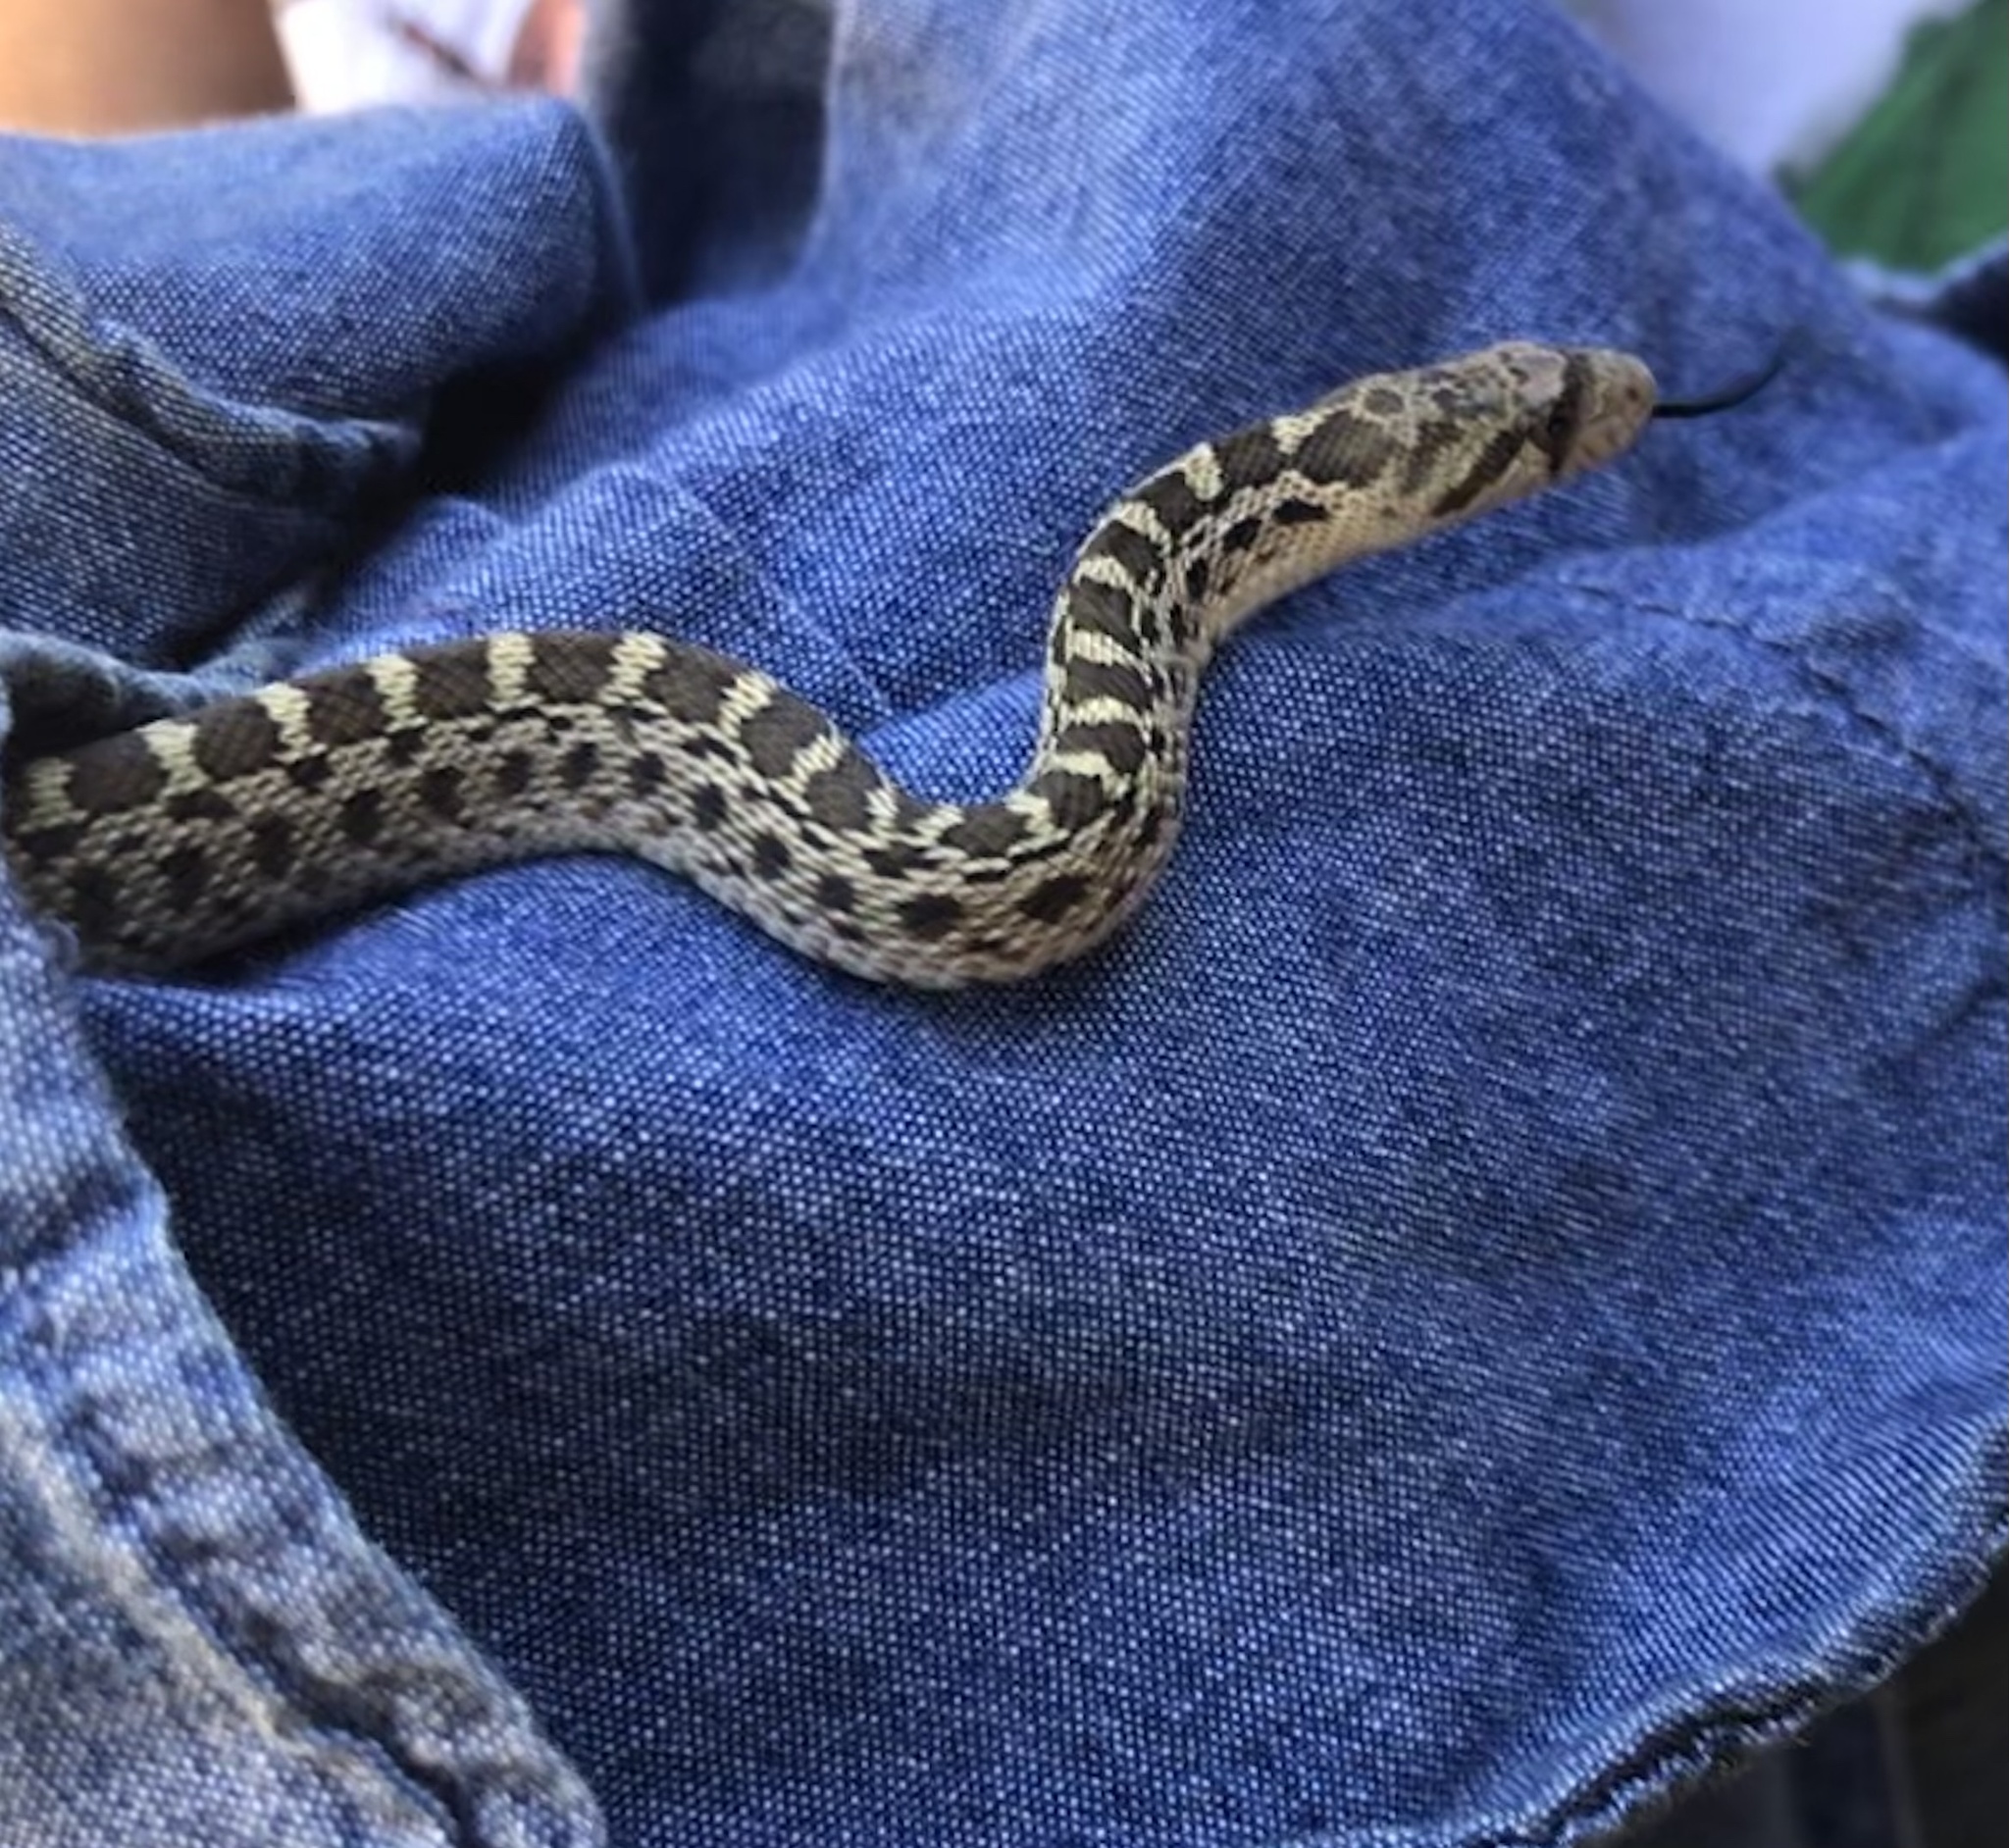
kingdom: Animalia
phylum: Chordata
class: Squamata
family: Colubridae
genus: Pituophis
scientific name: Pituophis catenifer
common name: Gopher snake
